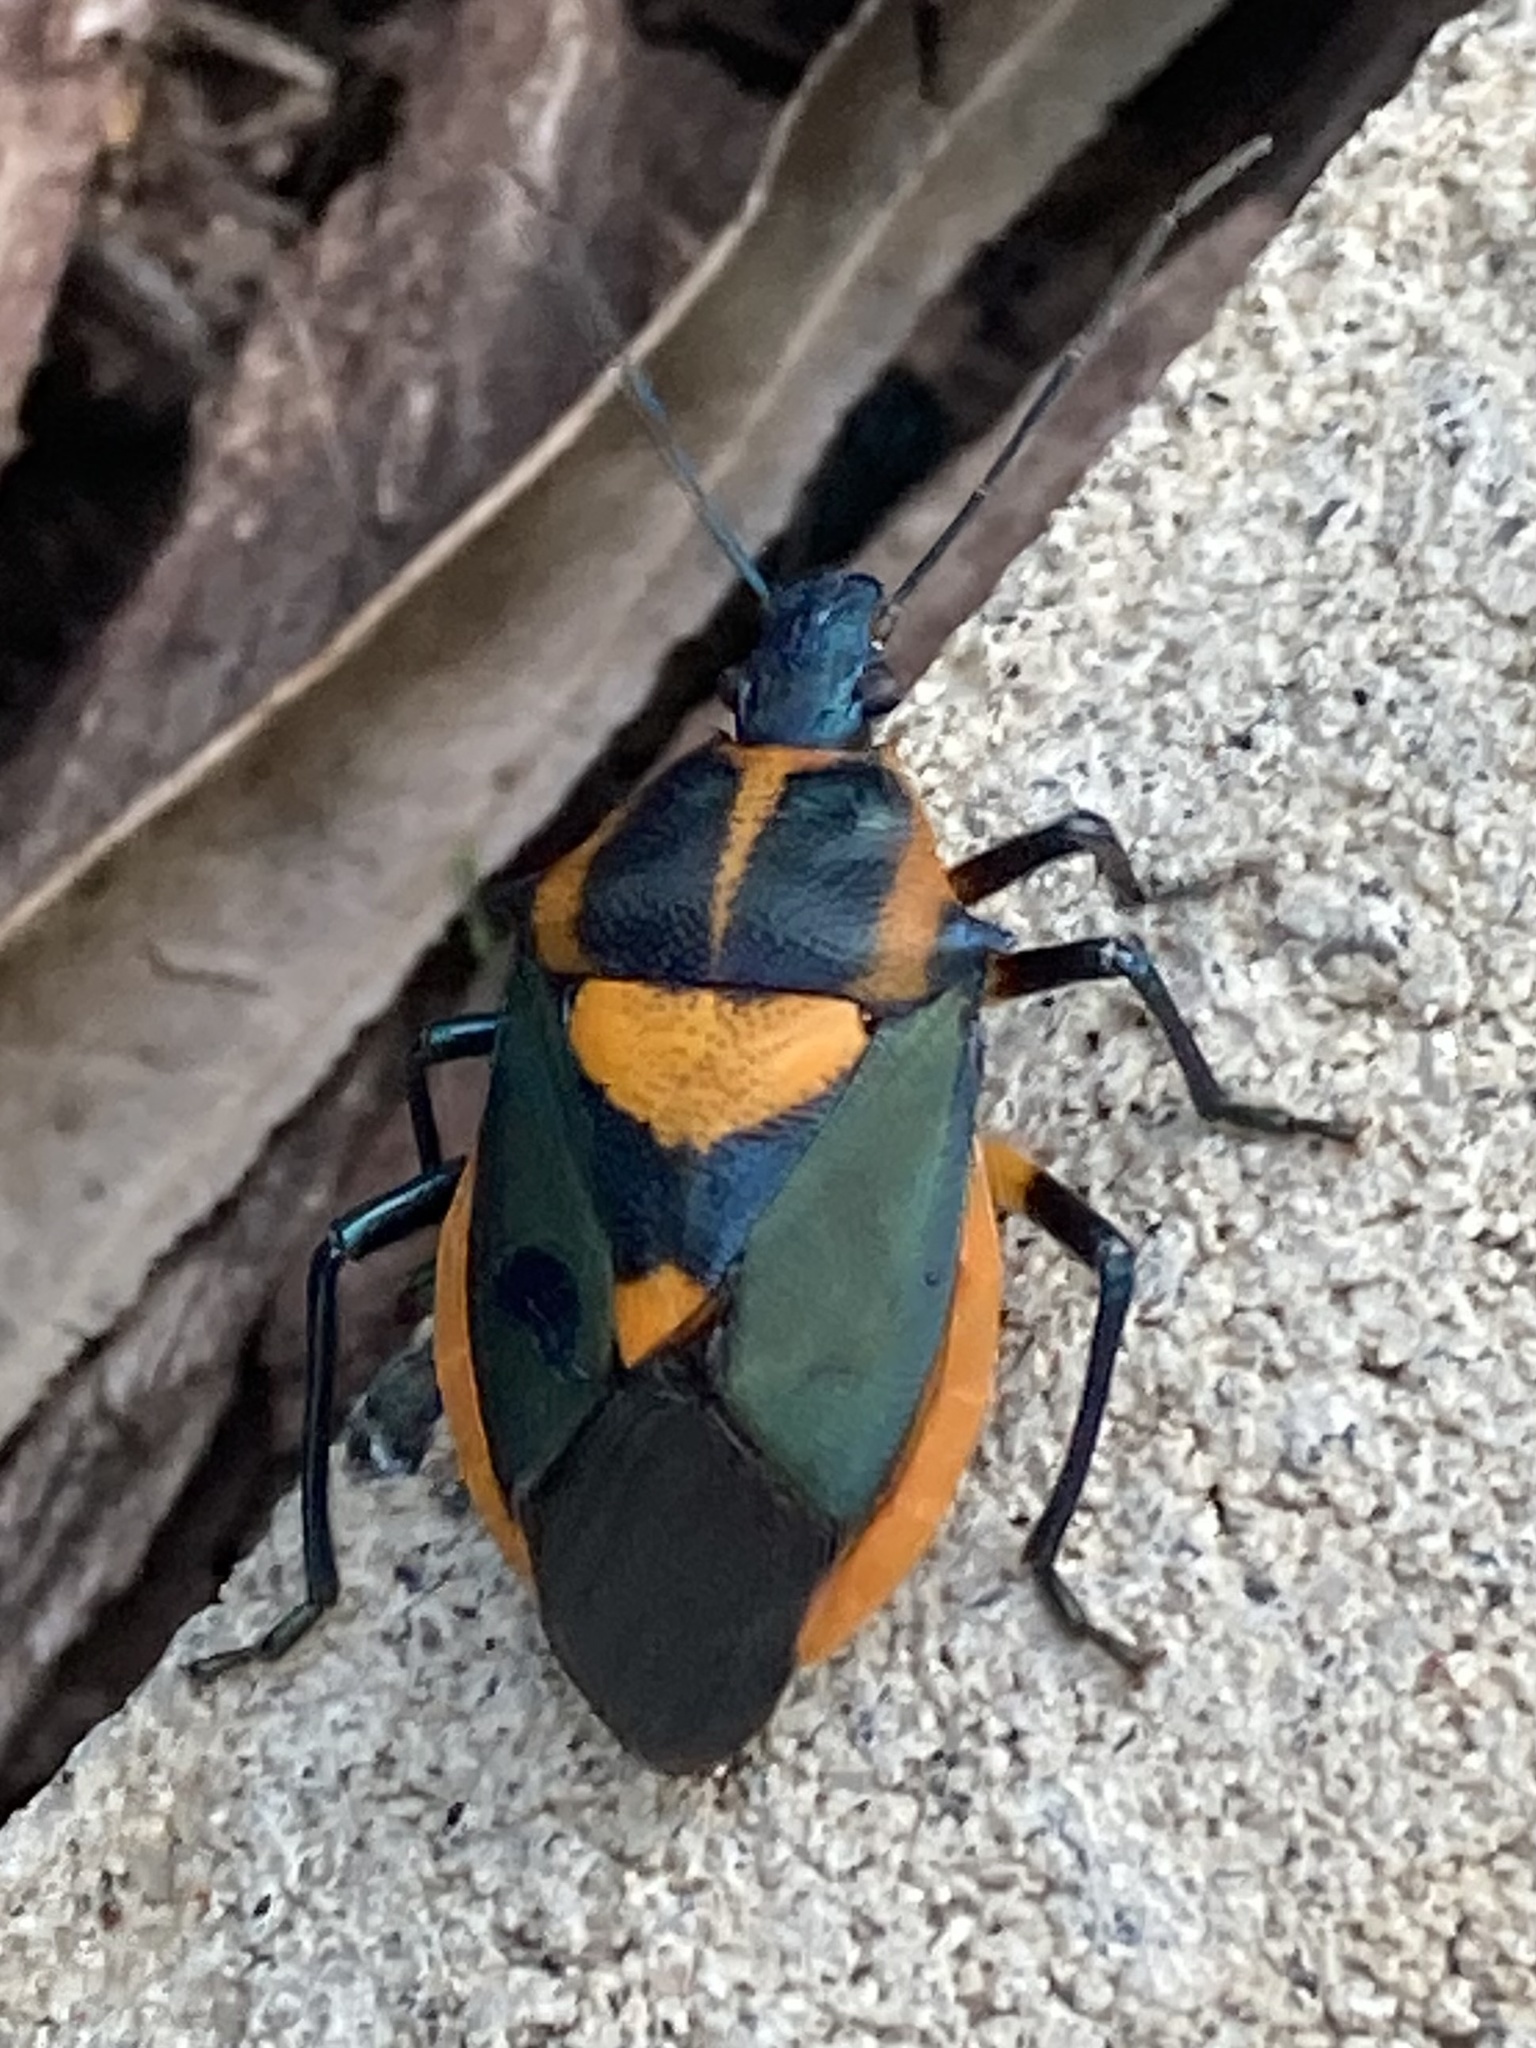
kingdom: Animalia
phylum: Arthropoda
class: Insecta
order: Hemiptera
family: Pentatomidae
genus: Euthyrhynchus
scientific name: Euthyrhynchus floridanus
